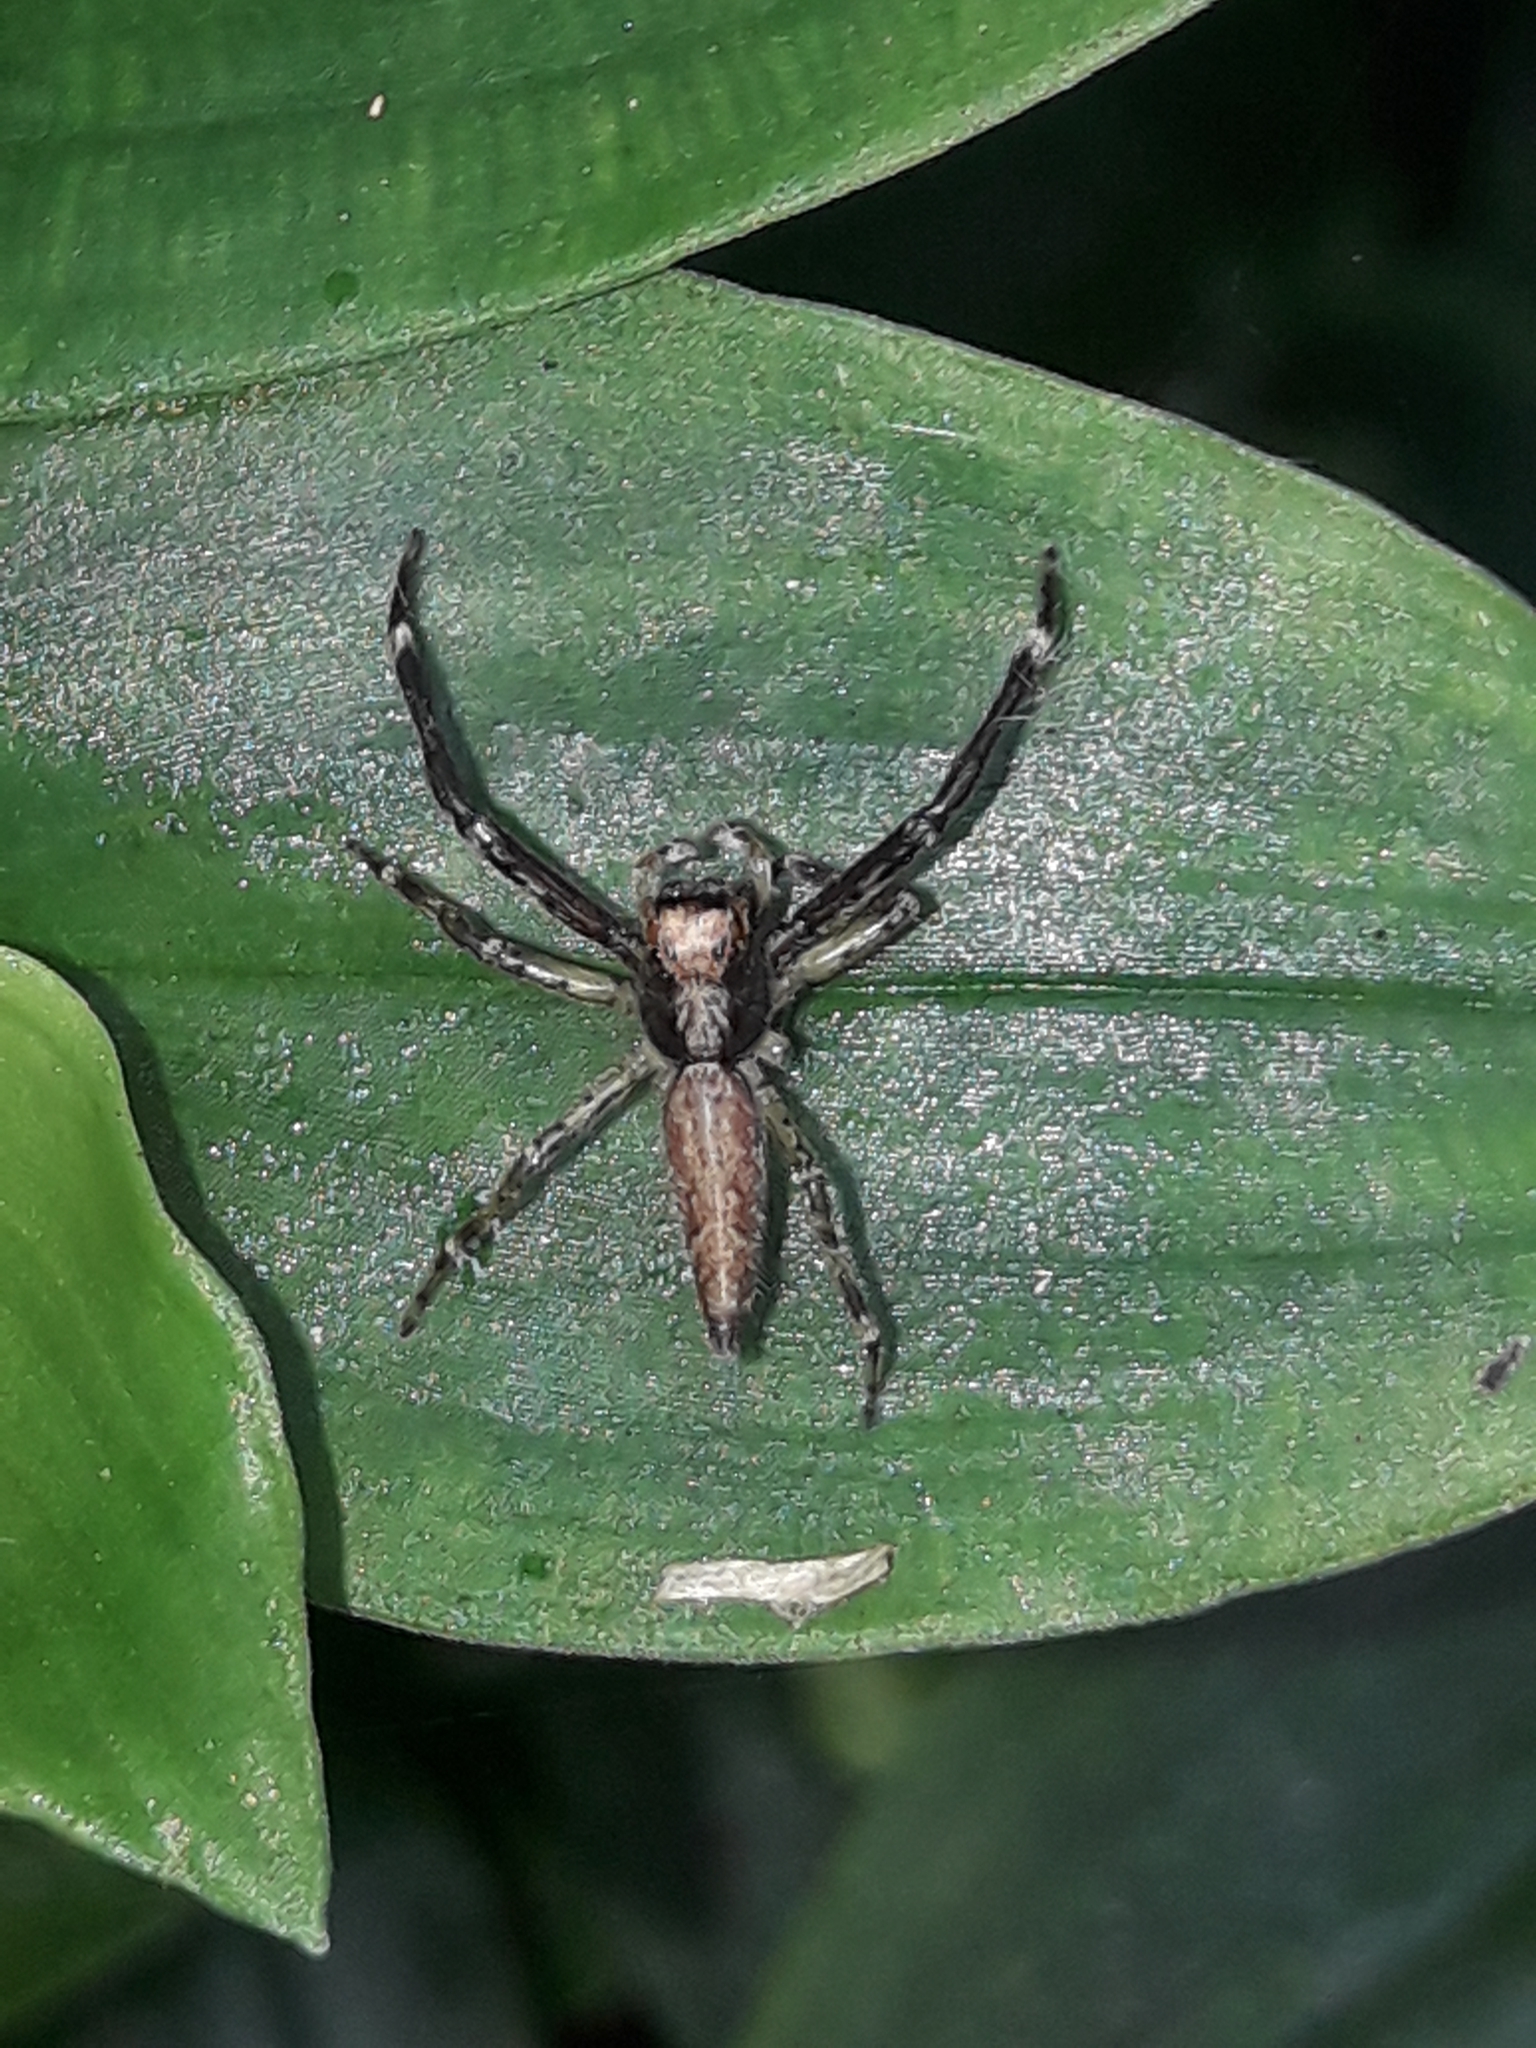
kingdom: Animalia
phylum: Arthropoda
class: Arachnida
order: Araneae
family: Salticidae
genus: Helpis
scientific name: Helpis minitabunda
